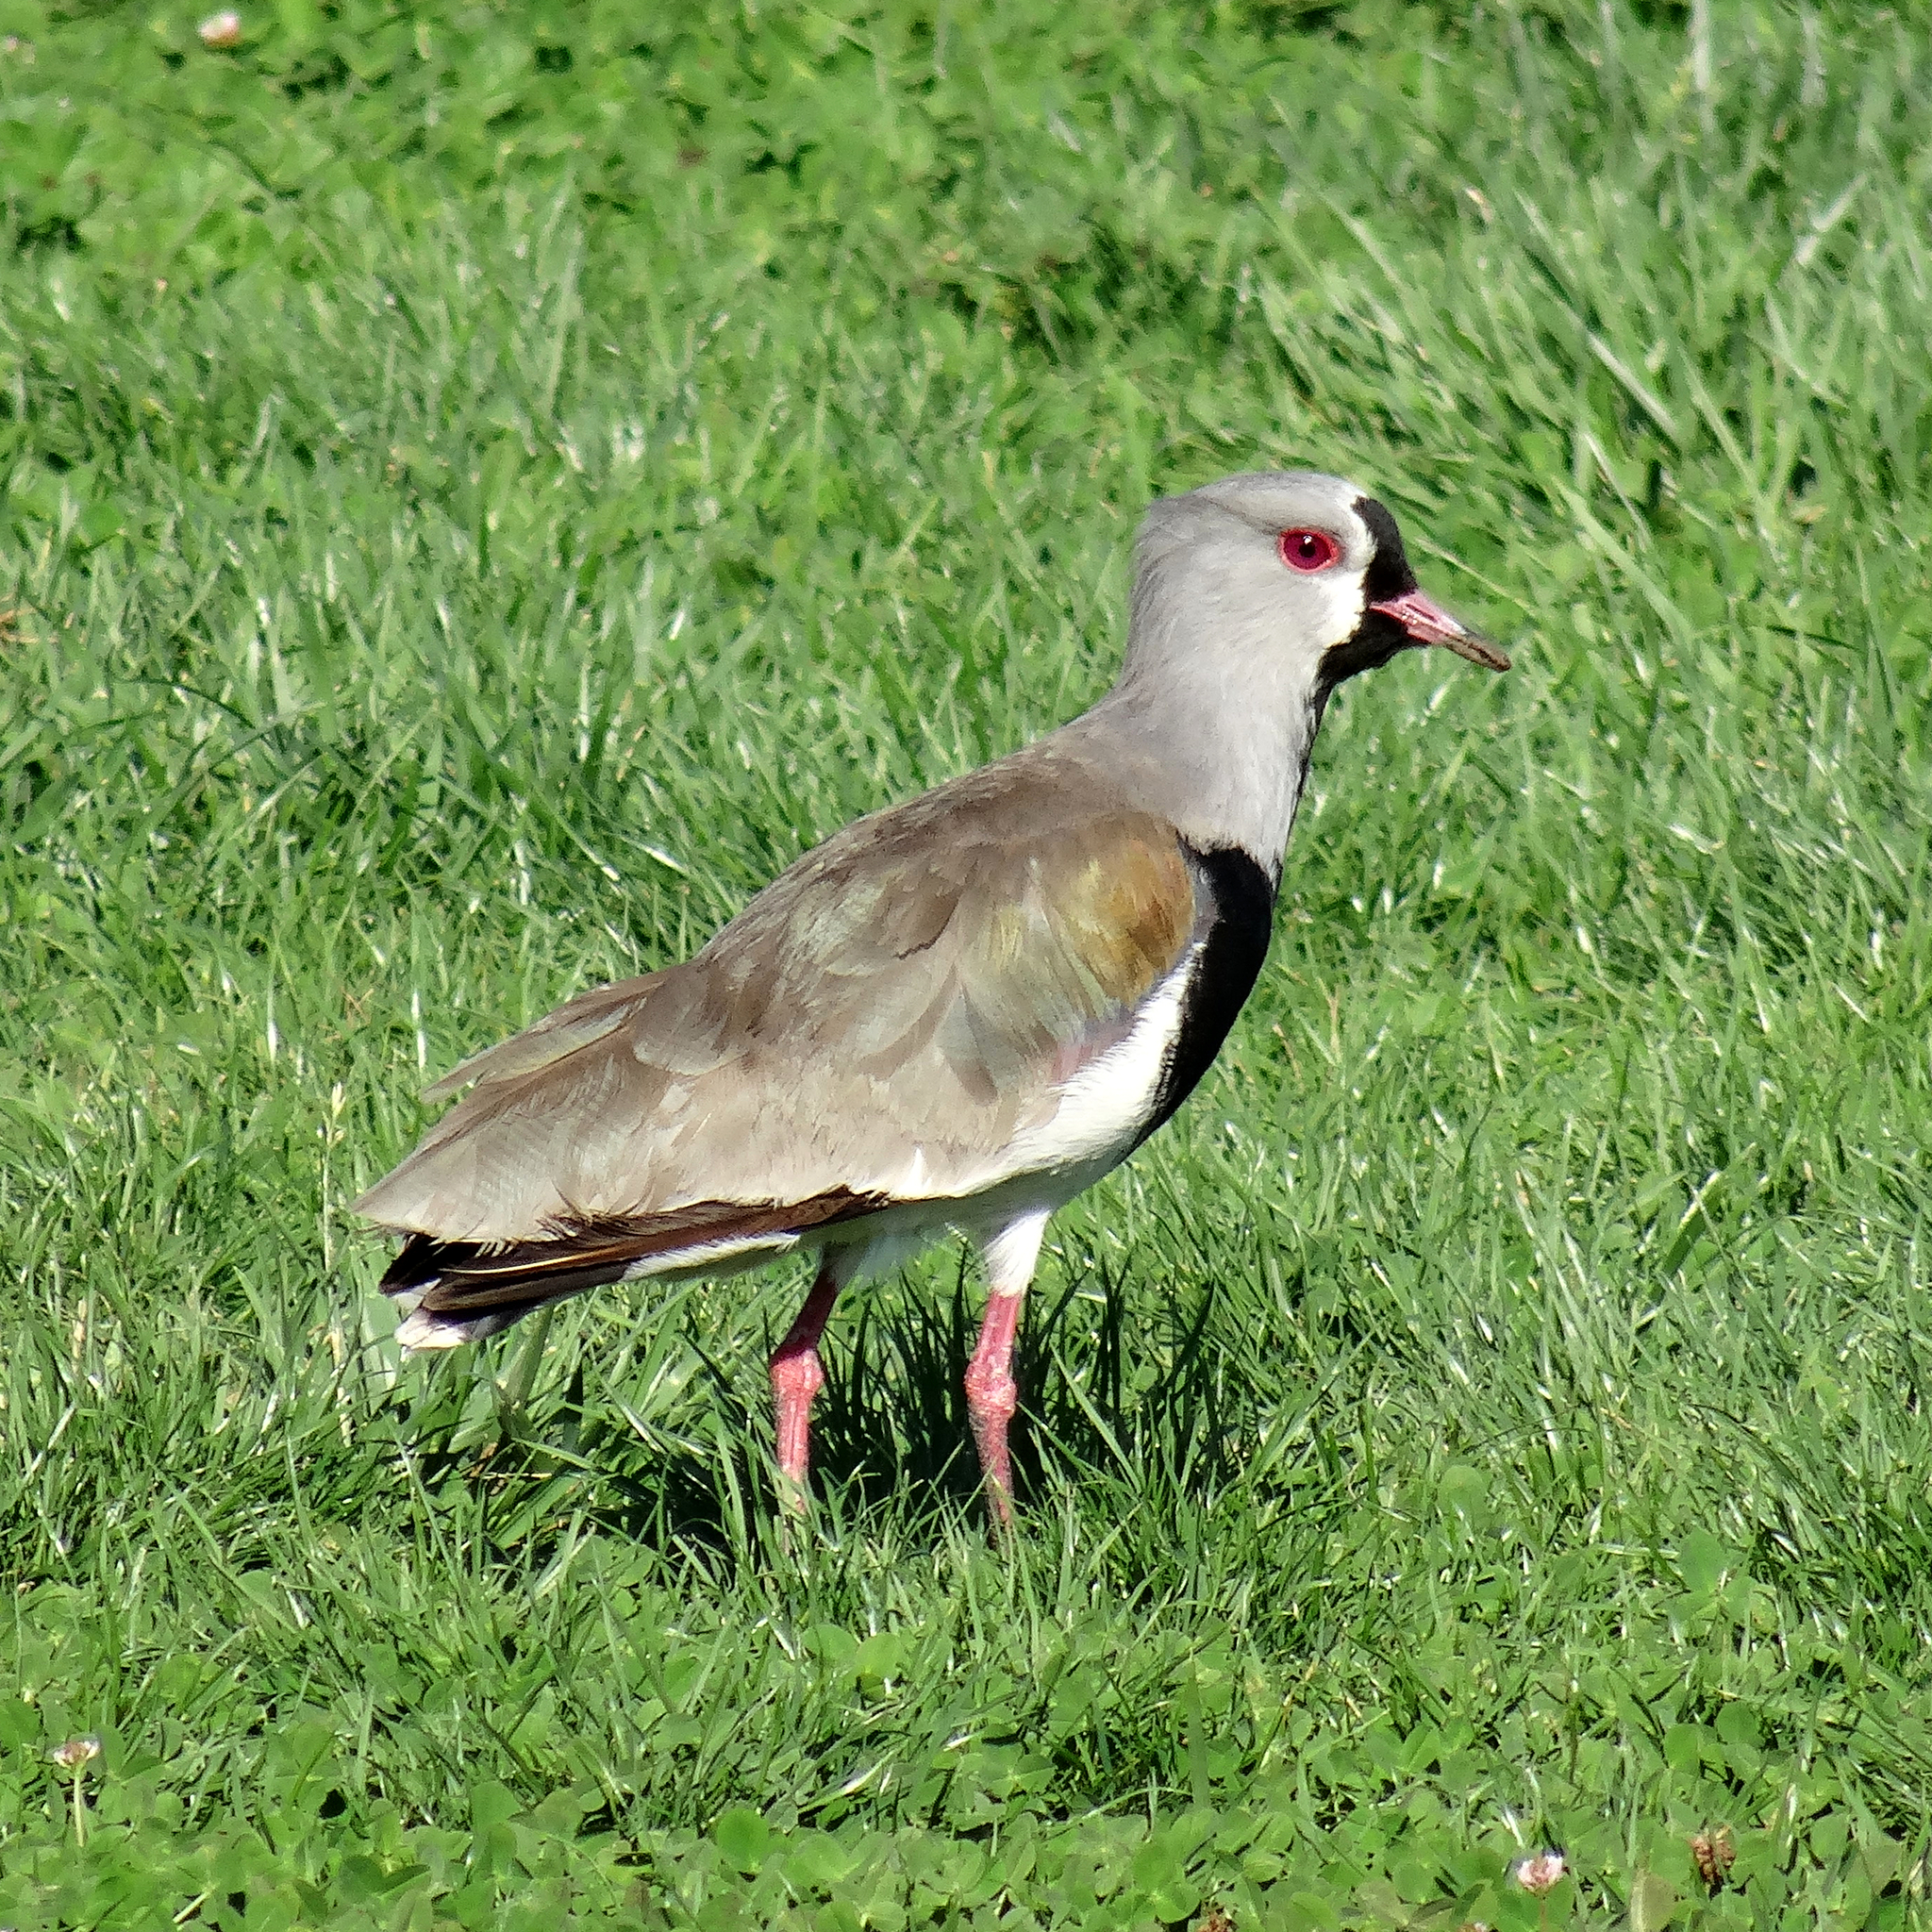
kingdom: Animalia
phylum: Chordata
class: Aves
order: Charadriiformes
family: Charadriidae
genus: Vanellus
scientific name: Vanellus chilensis
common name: Southern lapwing
